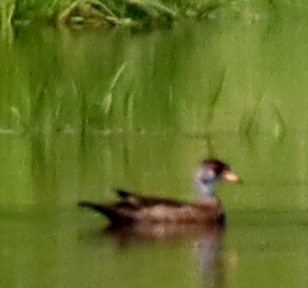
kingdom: Animalia
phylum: Chordata
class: Aves
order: Anseriformes
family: Anatidae
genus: Aix
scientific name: Aix sponsa
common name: Wood duck
